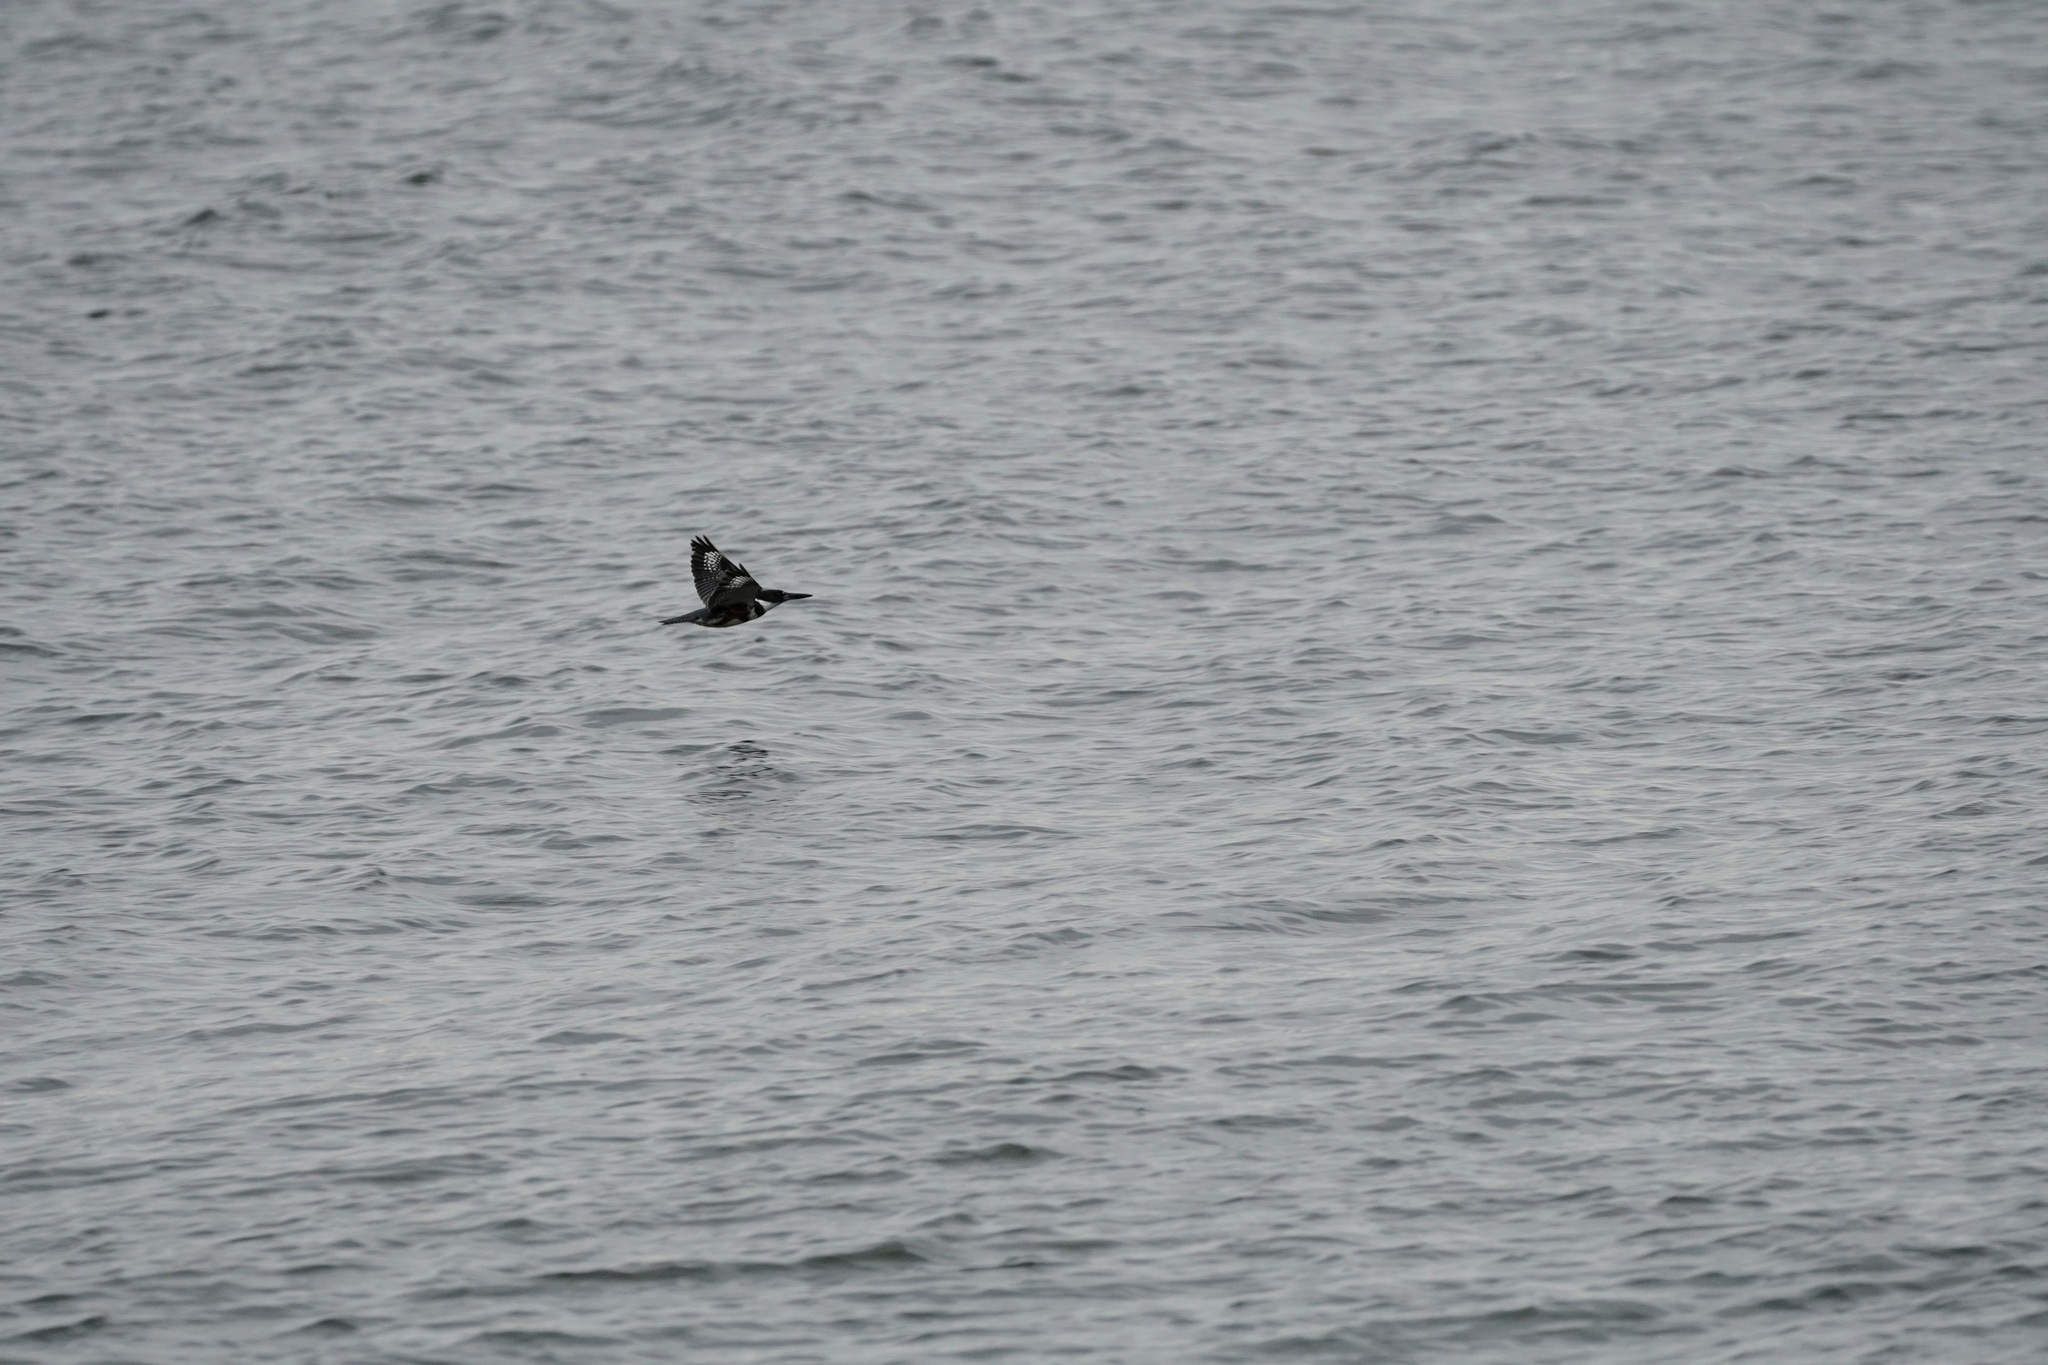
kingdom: Animalia
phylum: Chordata
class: Aves
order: Coraciiformes
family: Alcedinidae
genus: Megaceryle
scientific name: Megaceryle alcyon
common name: Belted kingfisher
